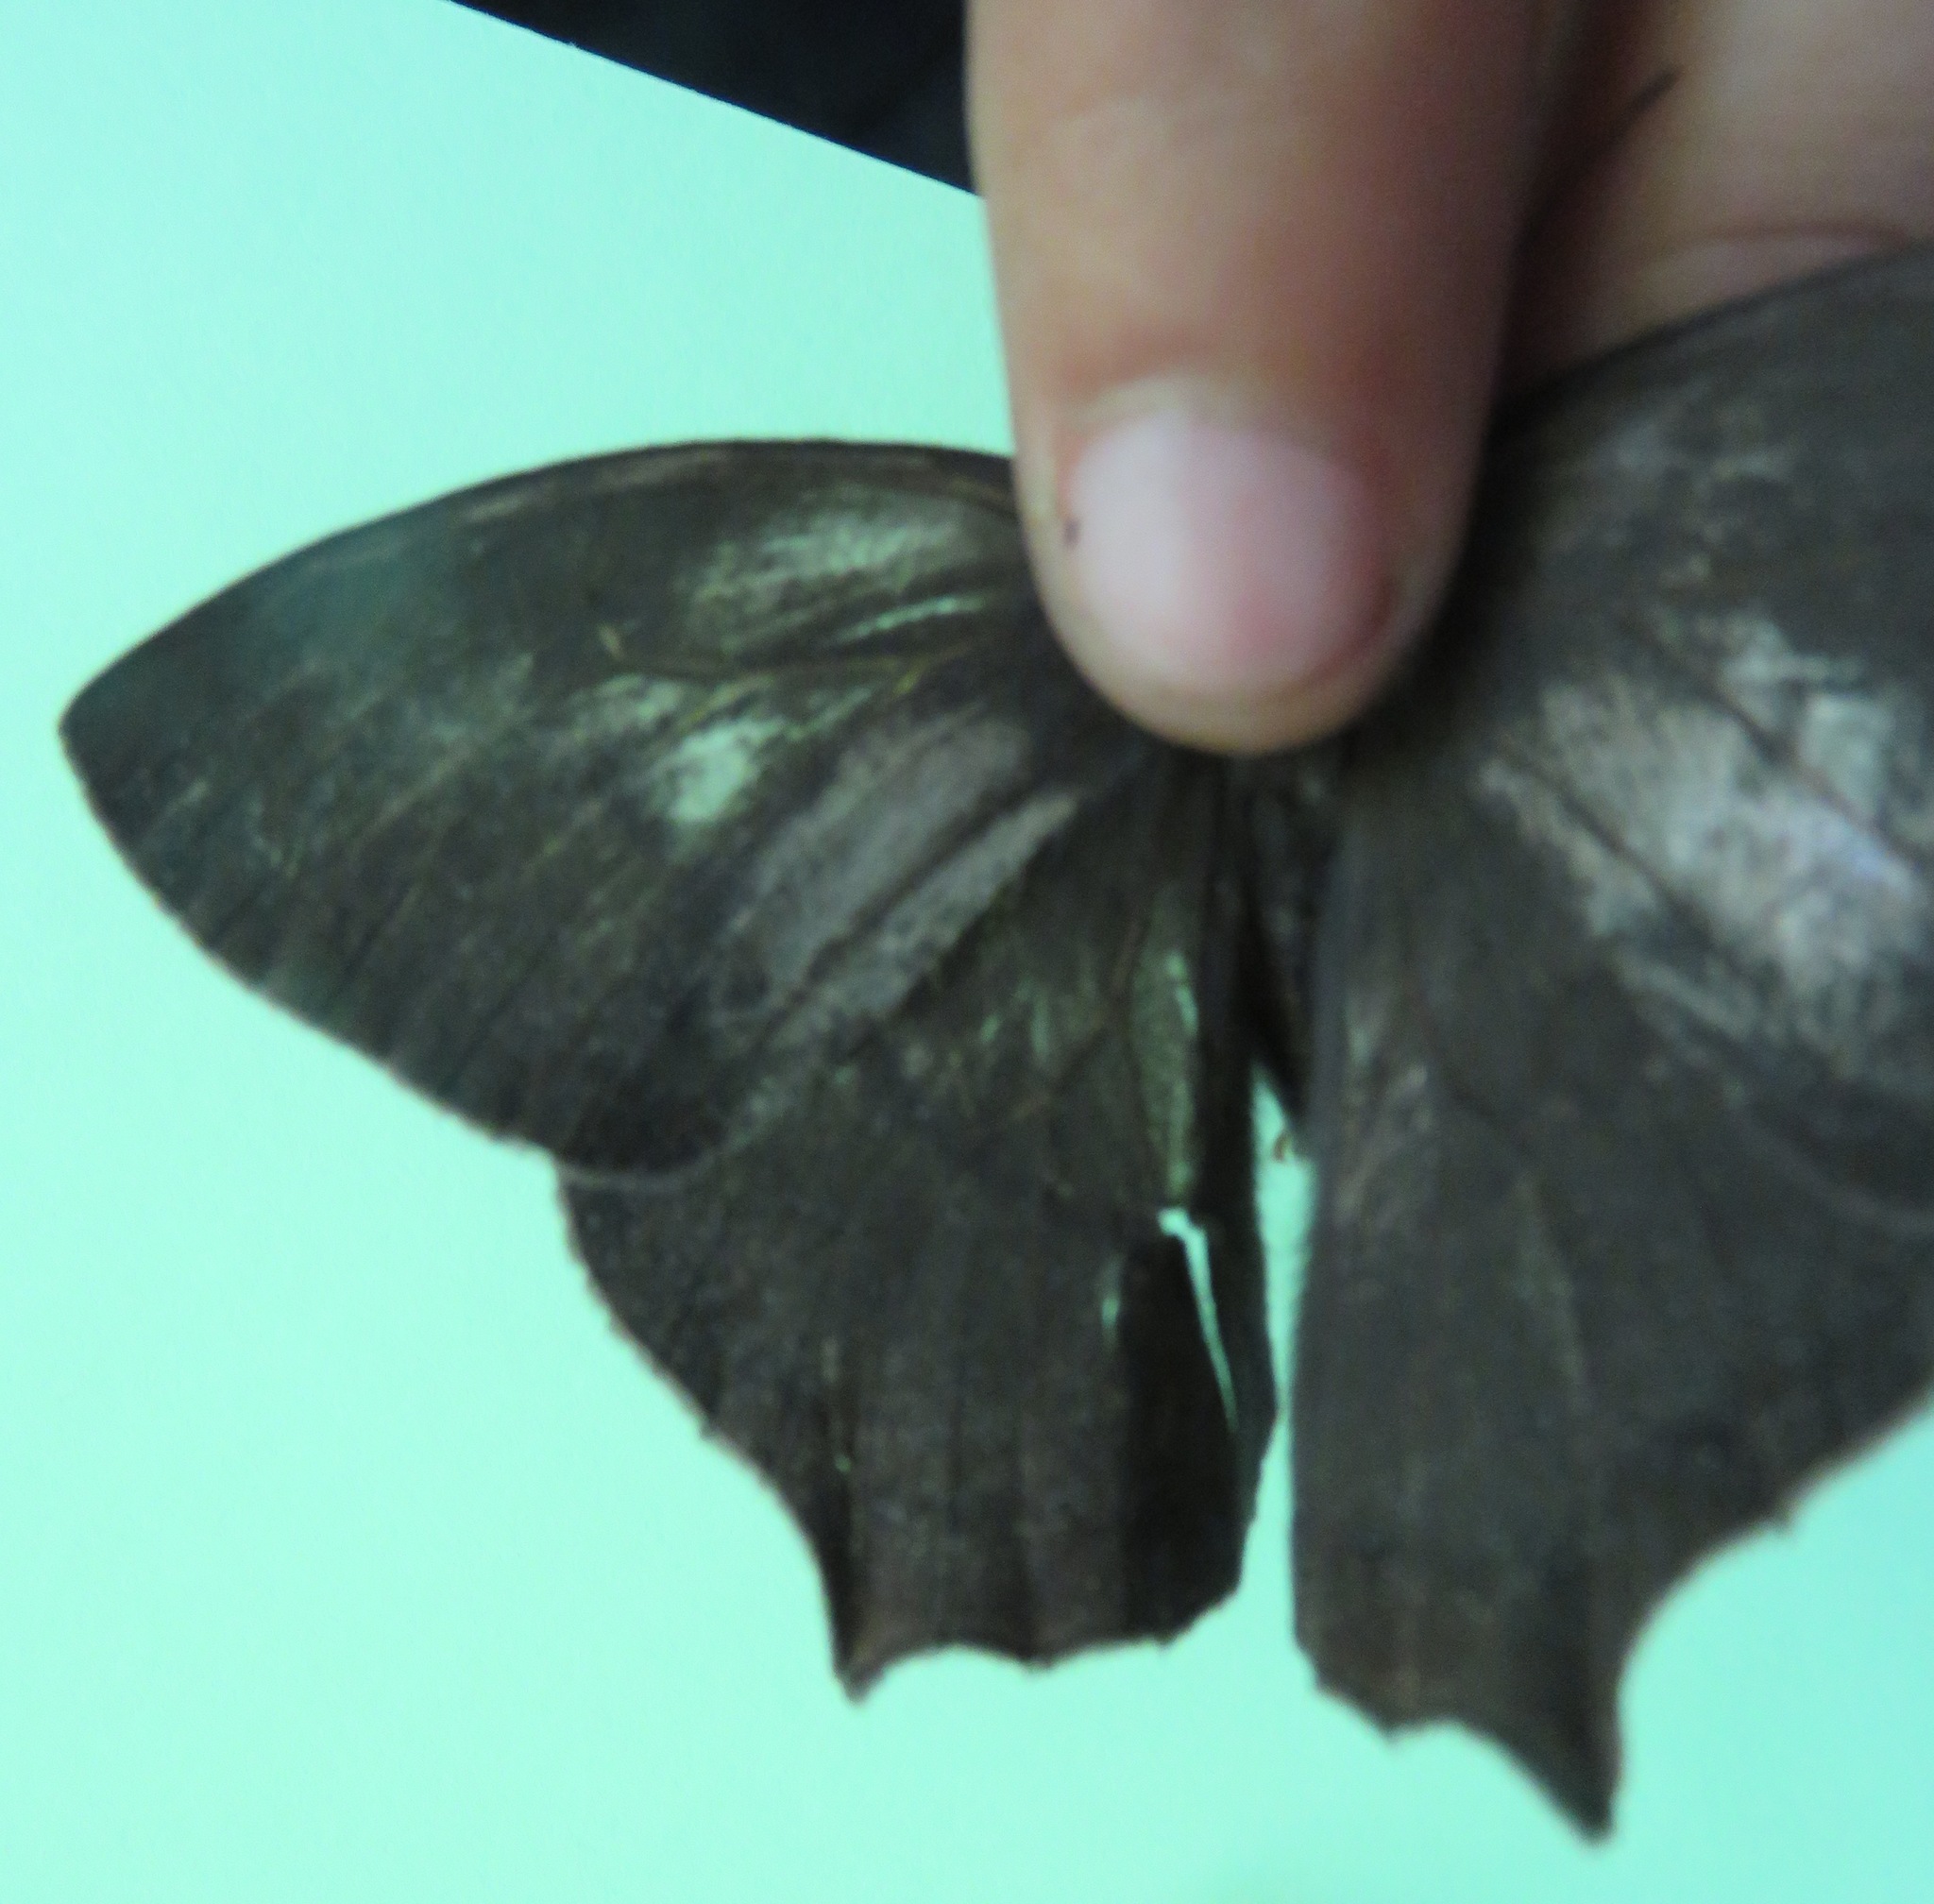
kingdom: Animalia
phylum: Arthropoda
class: Insecta
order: Lepidoptera
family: Nymphalidae
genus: Taygetis
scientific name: Taygetis virgilia
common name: Stub-tailed satyr
